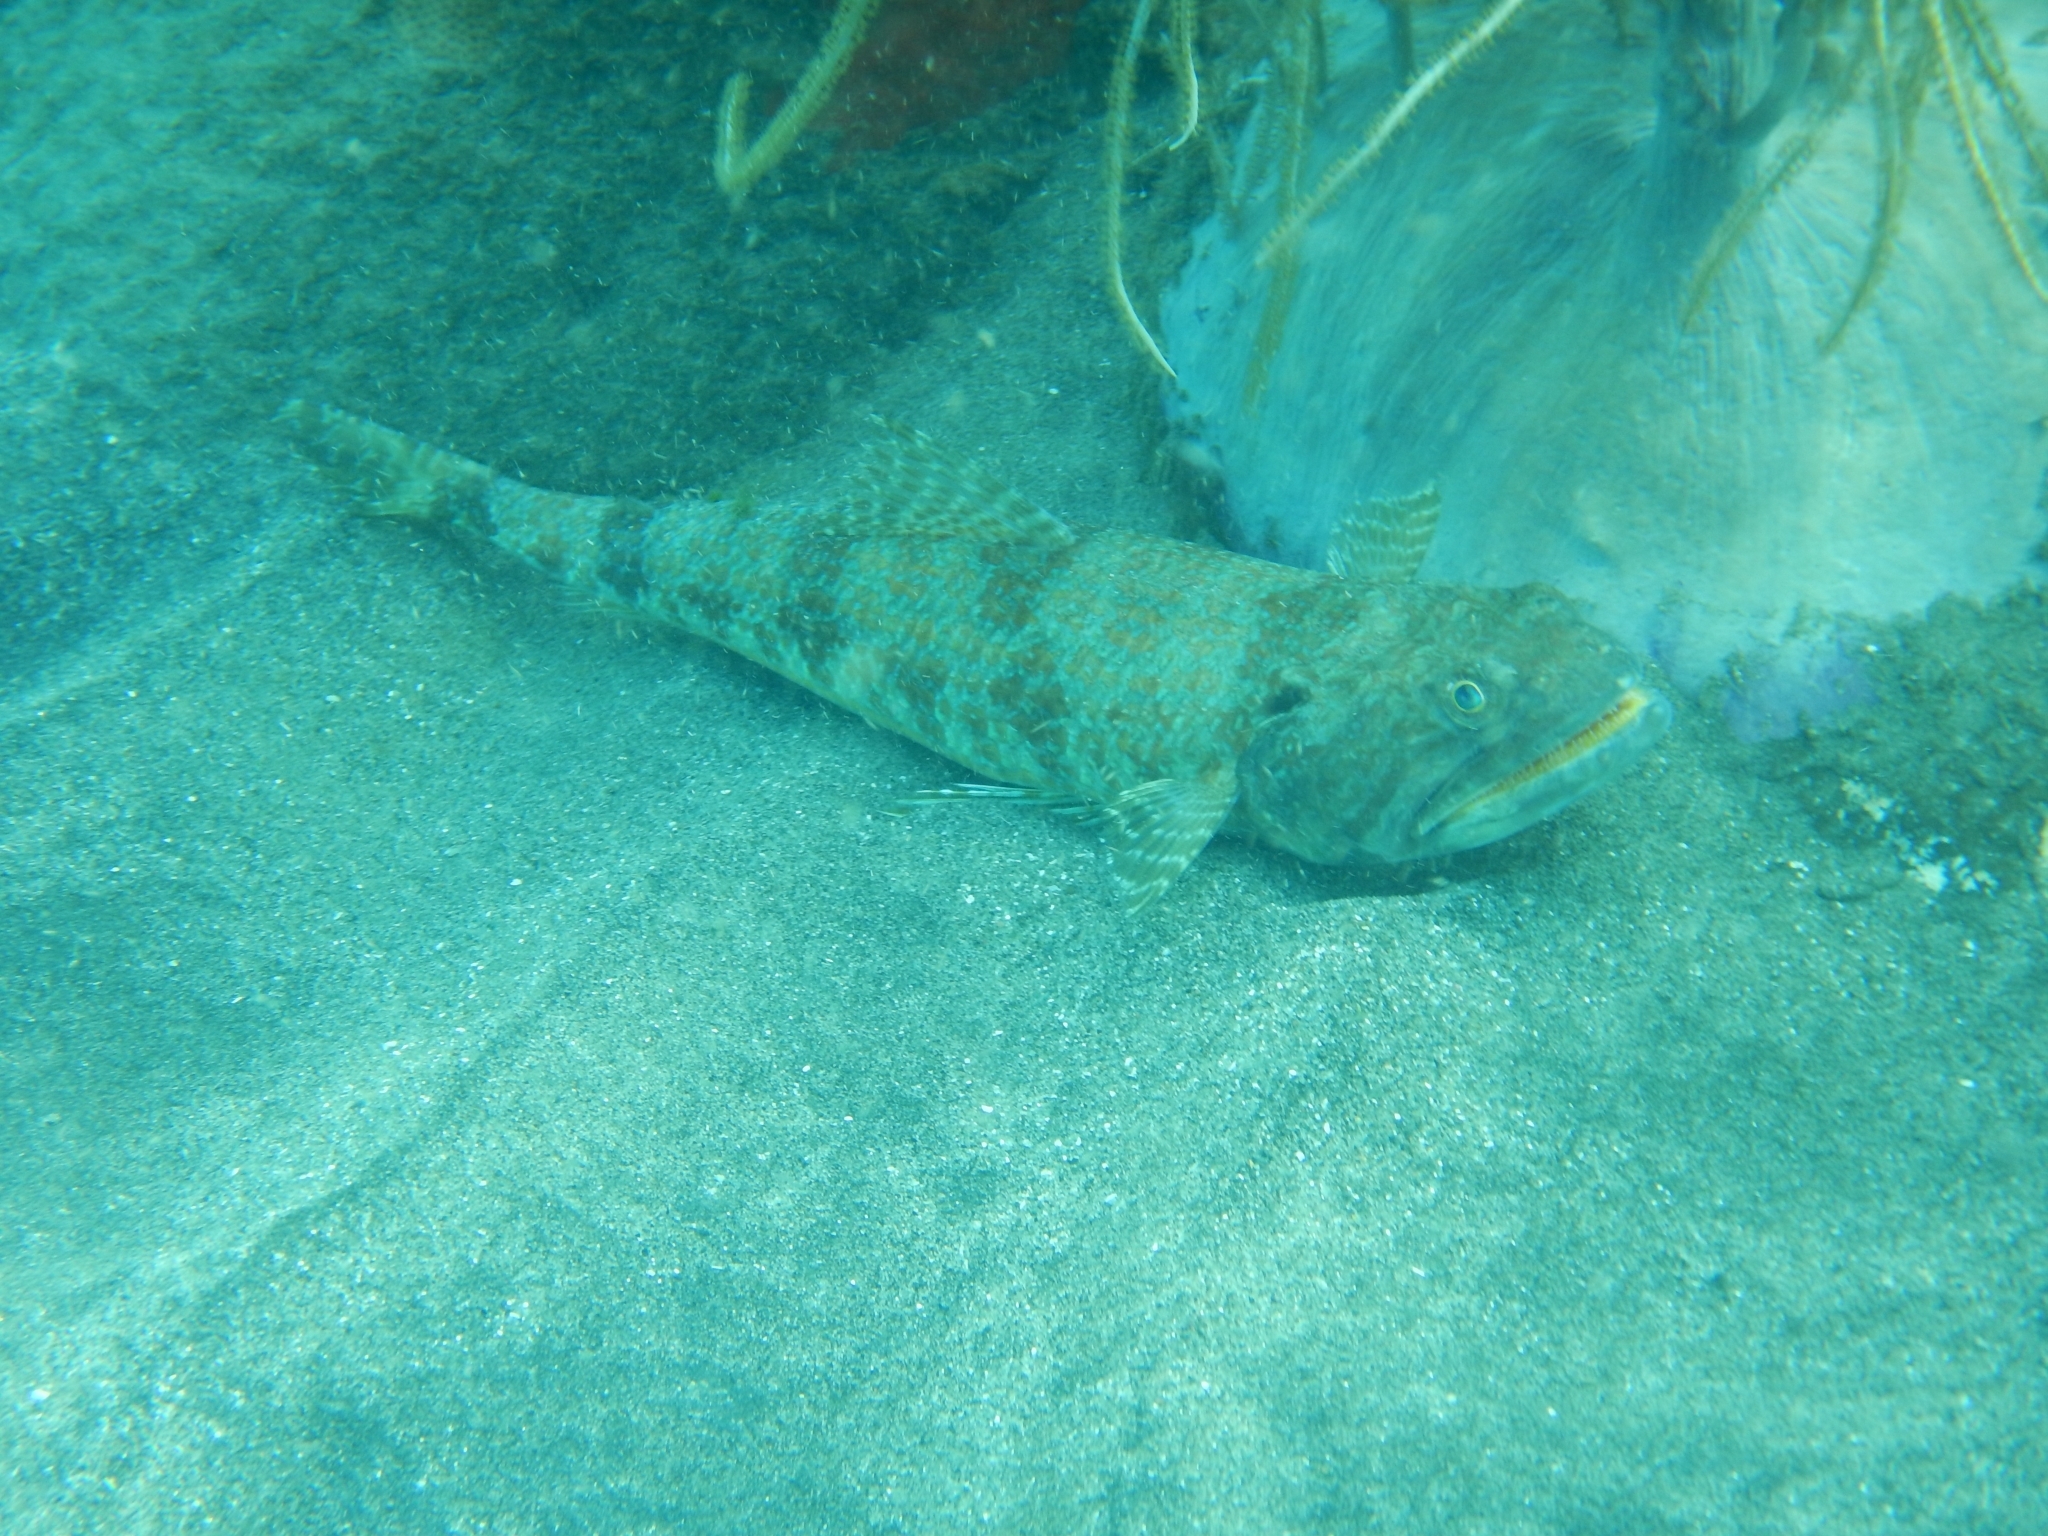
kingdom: Animalia
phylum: Chordata
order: Aulopiformes
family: Synodontidae
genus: Synodus
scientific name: Synodus intermedius
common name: Sand diver
